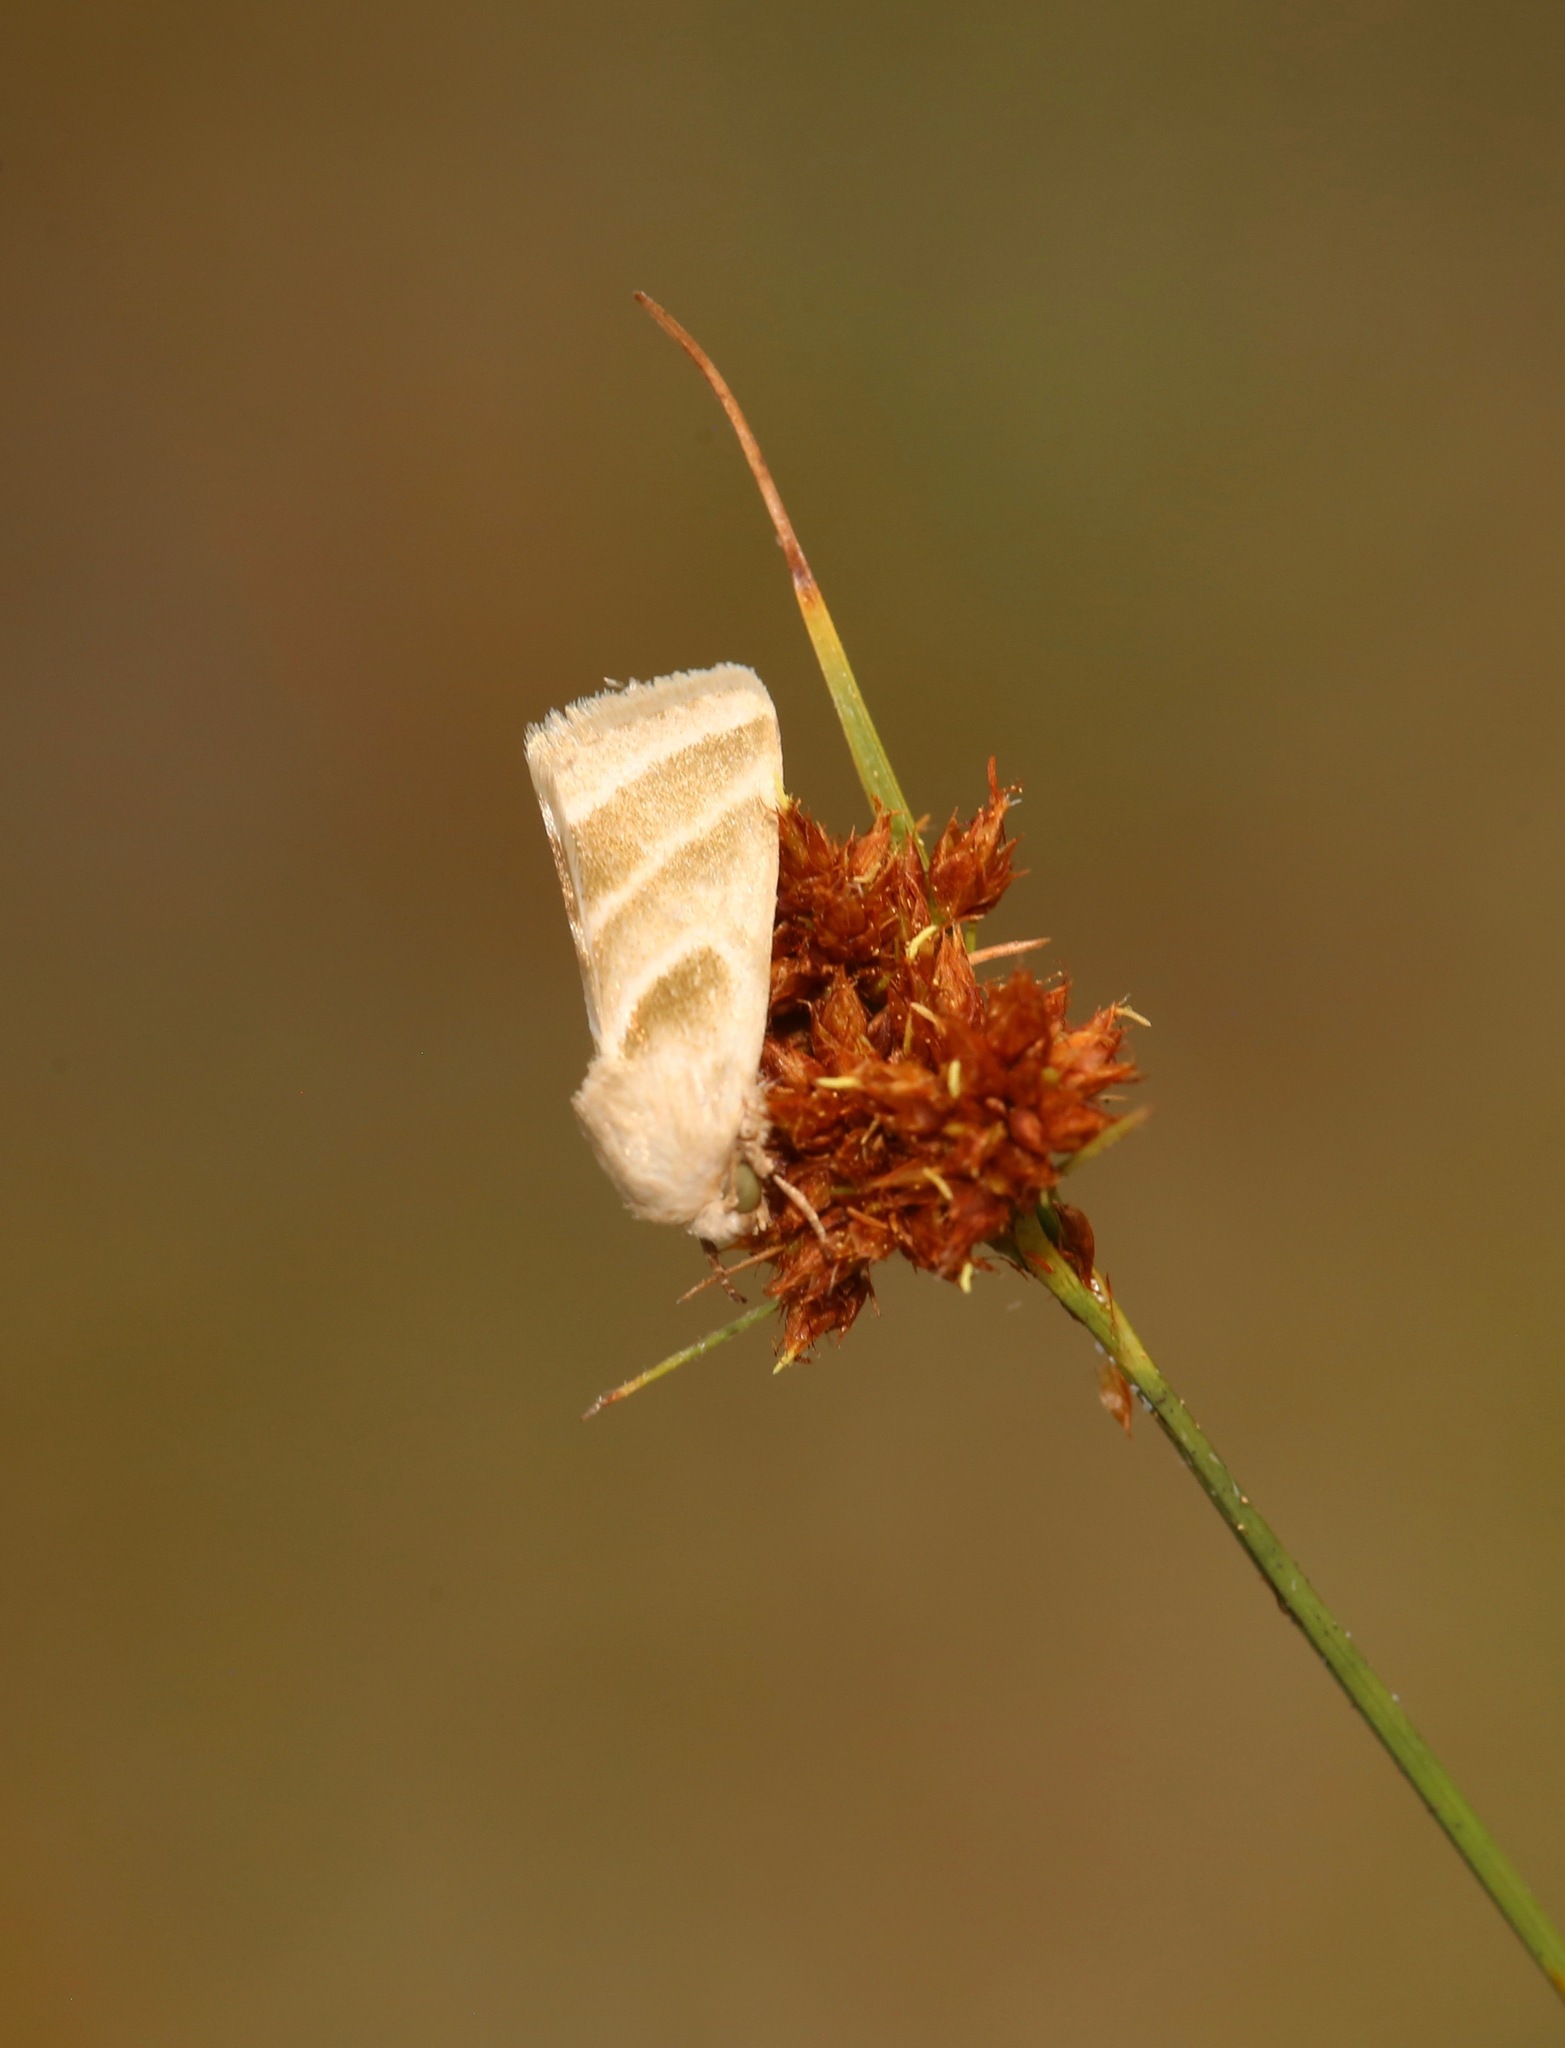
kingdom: Animalia
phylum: Arthropoda
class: Insecta
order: Lepidoptera
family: Noctuidae
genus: Schinia
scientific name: Schinia trifascia
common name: Three-lined flower moth
